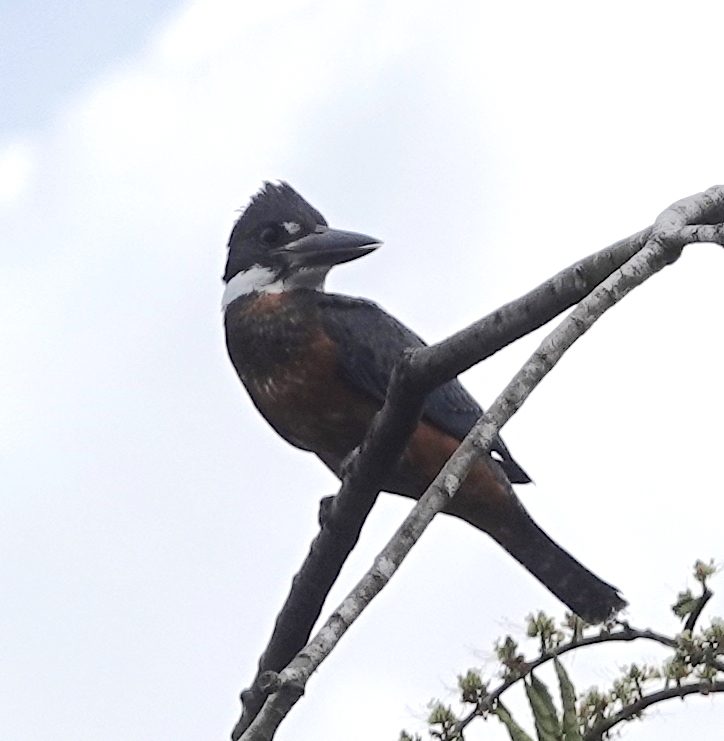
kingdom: Animalia
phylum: Chordata
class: Aves
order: Coraciiformes
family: Alcedinidae
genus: Megaceryle
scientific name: Megaceryle torquata
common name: Ringed kingfisher
